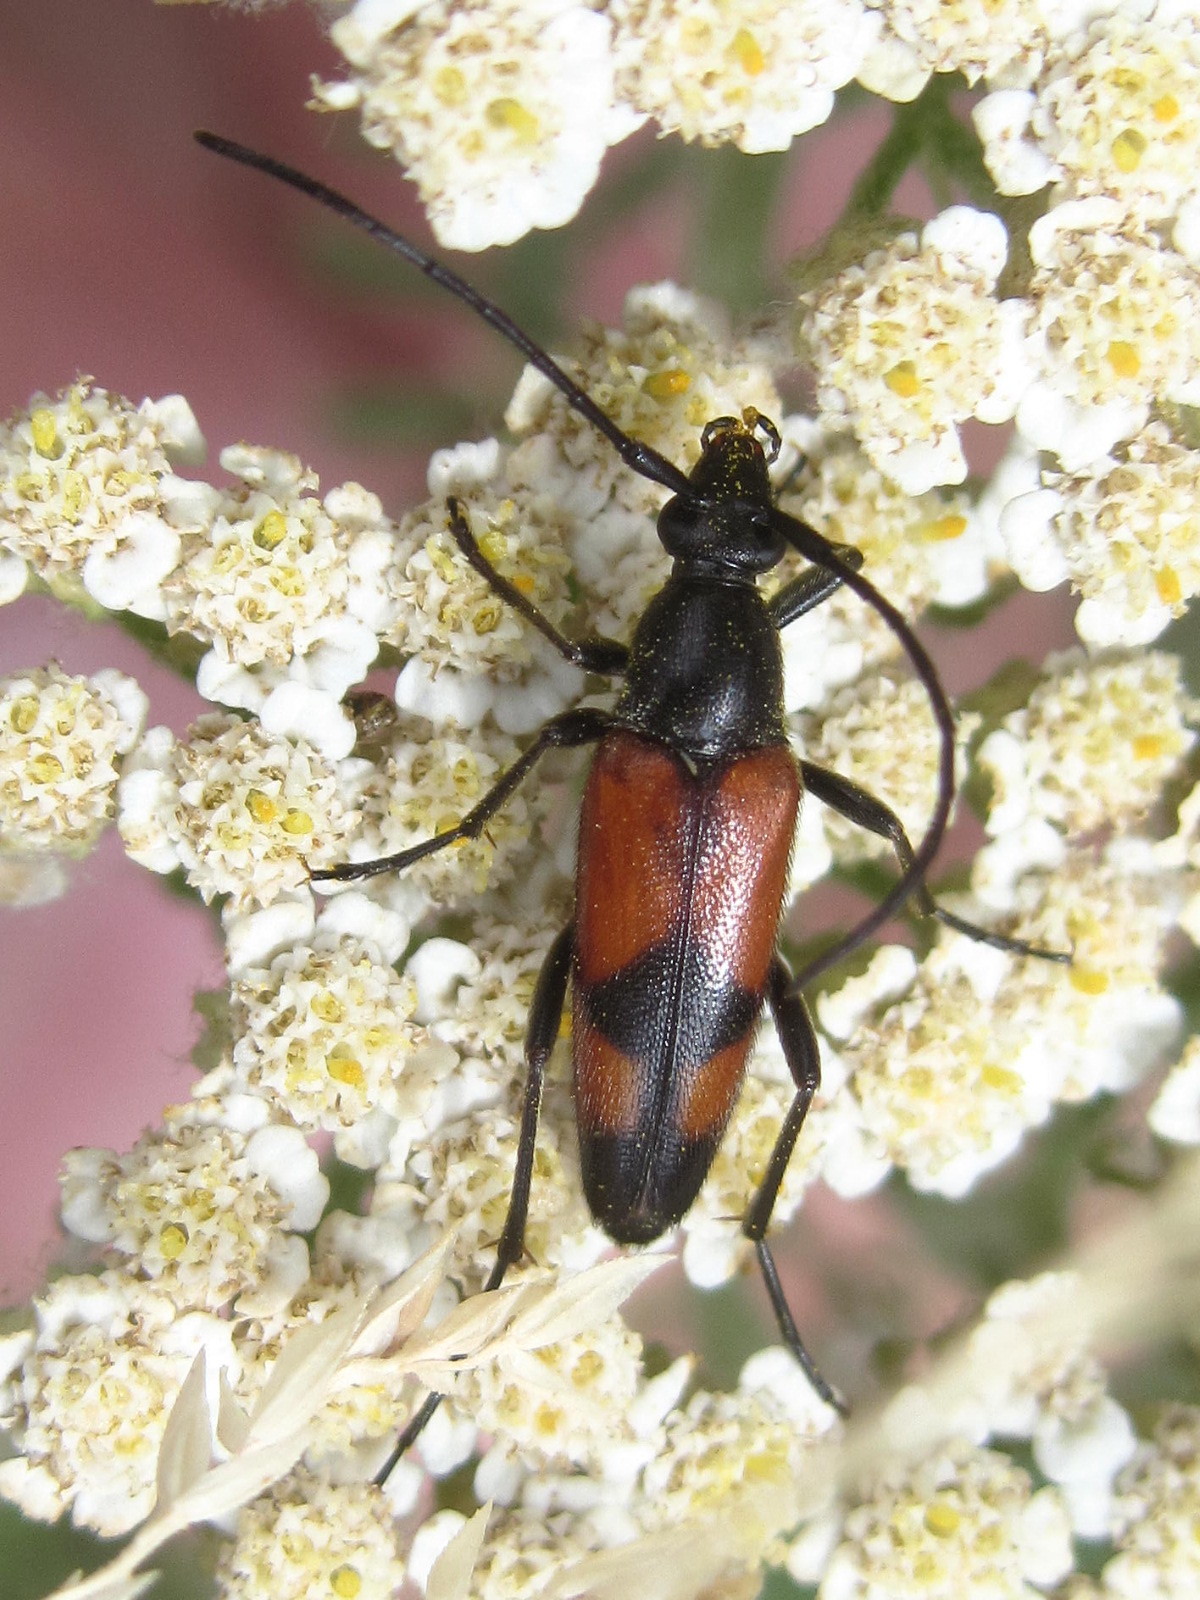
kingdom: Animalia
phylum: Arthropoda
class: Insecta
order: Coleoptera
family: Cerambycidae
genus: Stenurella
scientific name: Stenurella bifasciata
